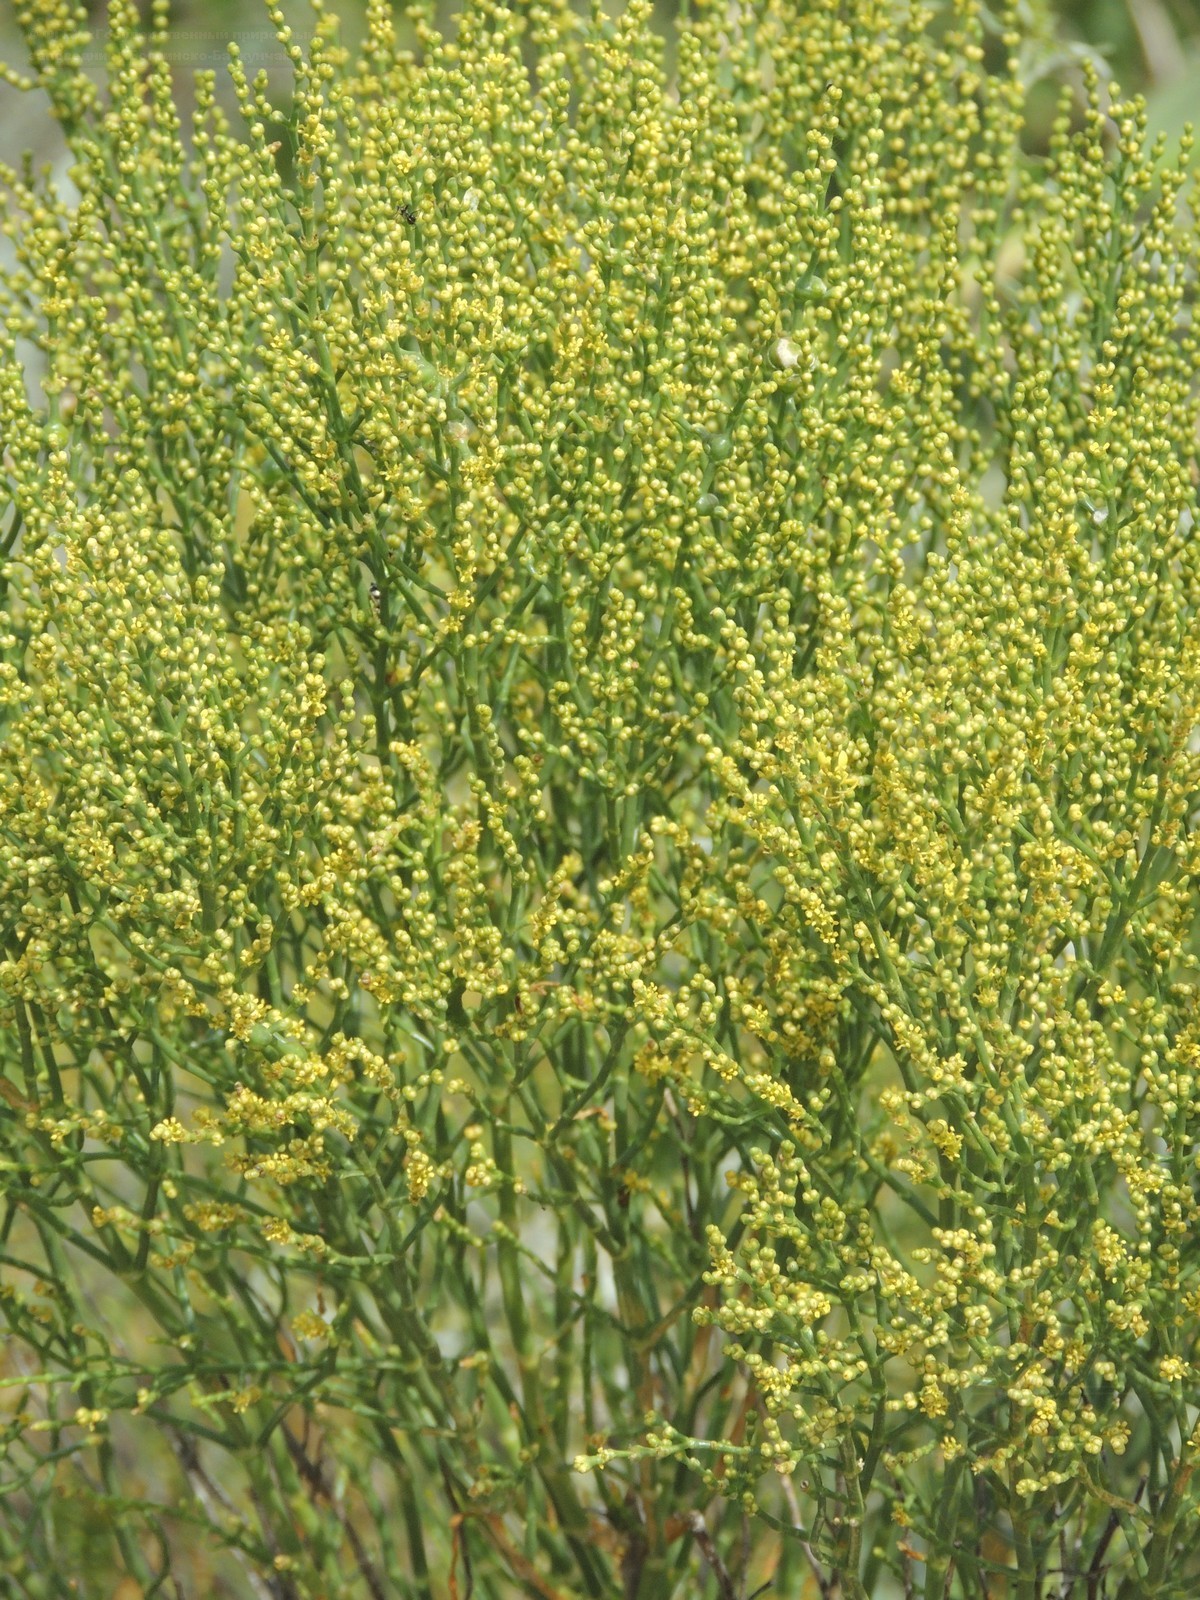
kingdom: Plantae
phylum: Tracheophyta
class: Magnoliopsida
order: Caryophyllales
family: Amaranthaceae
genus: Anabasis
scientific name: Anabasis aphylla
